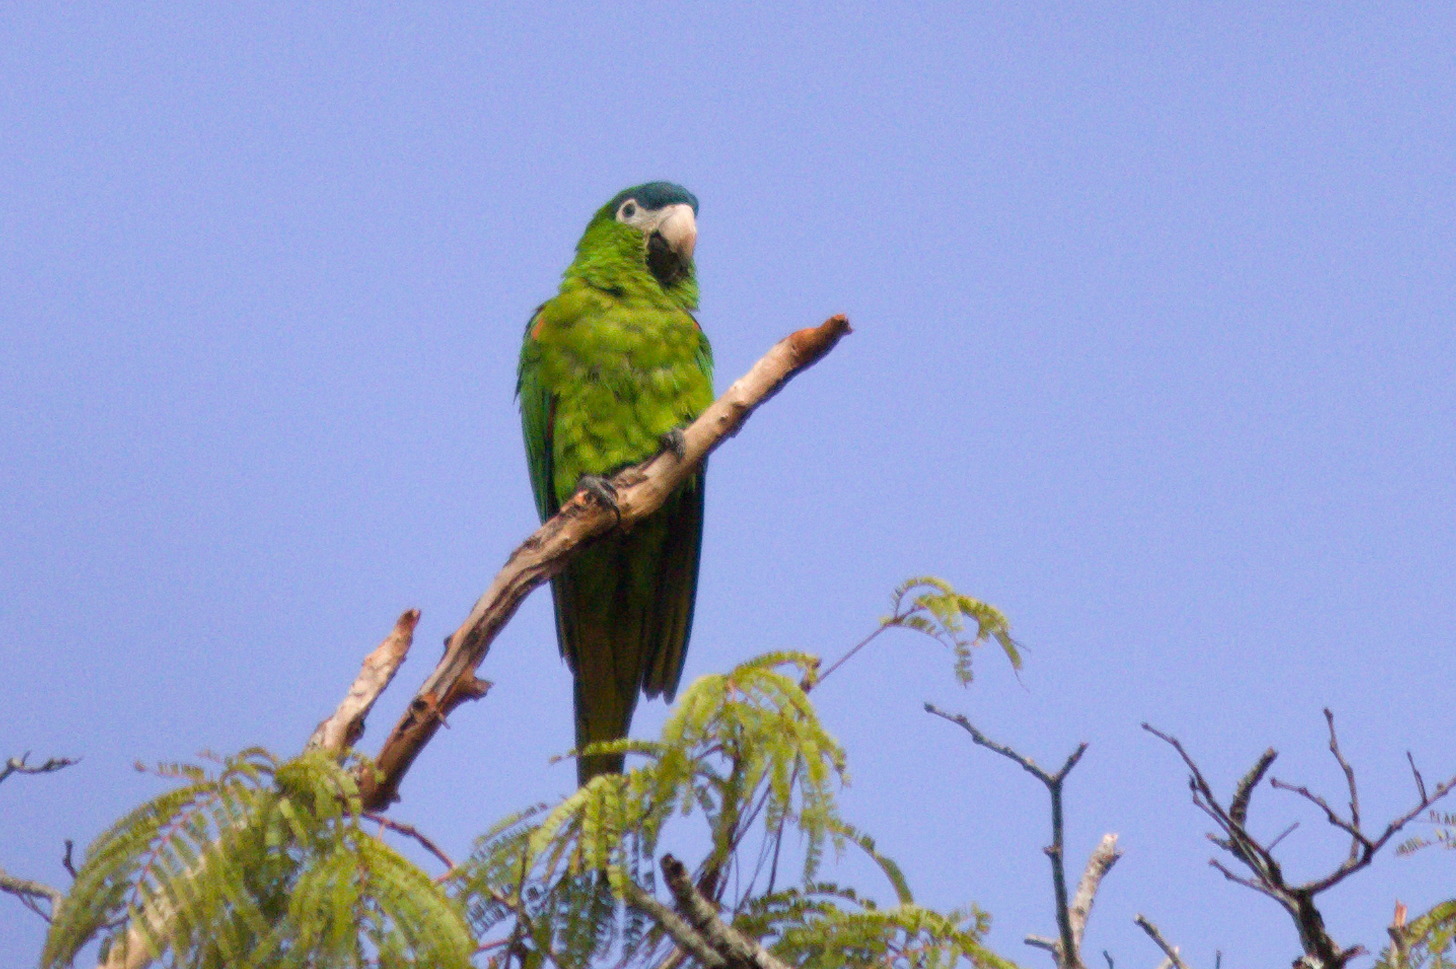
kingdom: Animalia
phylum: Chordata
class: Aves
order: Psittaciformes
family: Psittacidae
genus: Diopsittaca
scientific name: Diopsittaca nobilis
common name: Red-shouldered macaw
